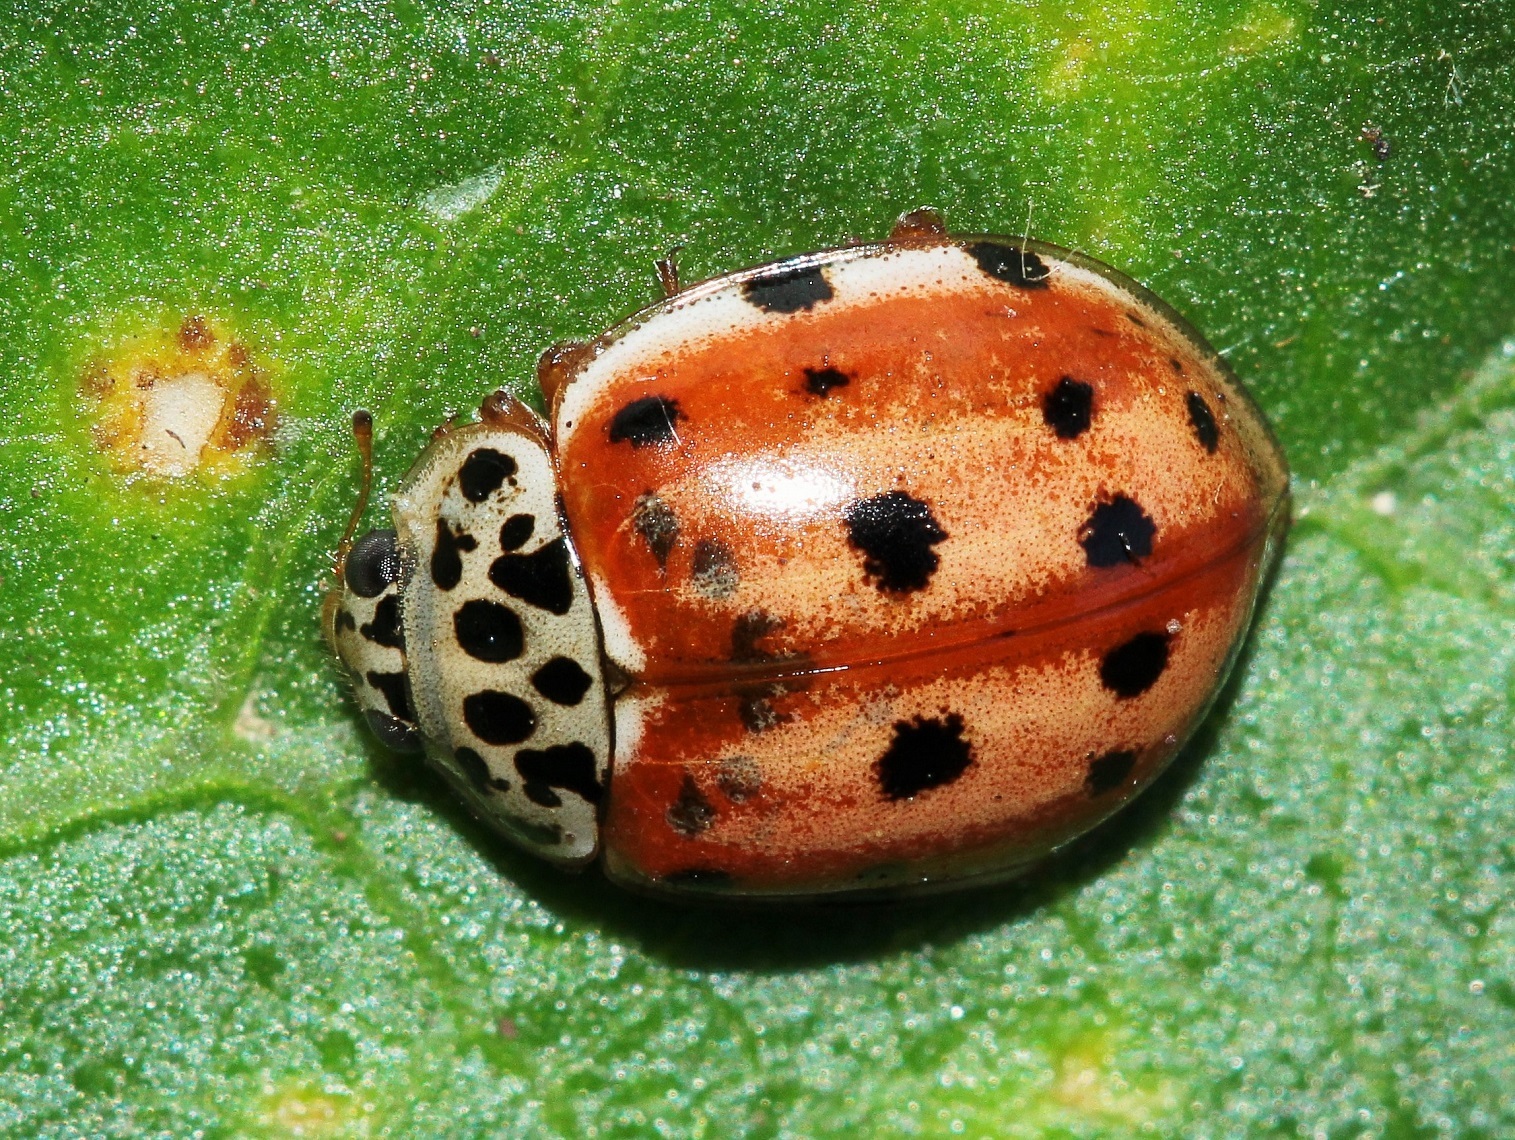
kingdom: Animalia
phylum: Arthropoda
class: Insecta
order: Coleoptera
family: Coccinellidae
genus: Harmonia
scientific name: Harmonia quadripunctata
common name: Cream-streaked ladybird
